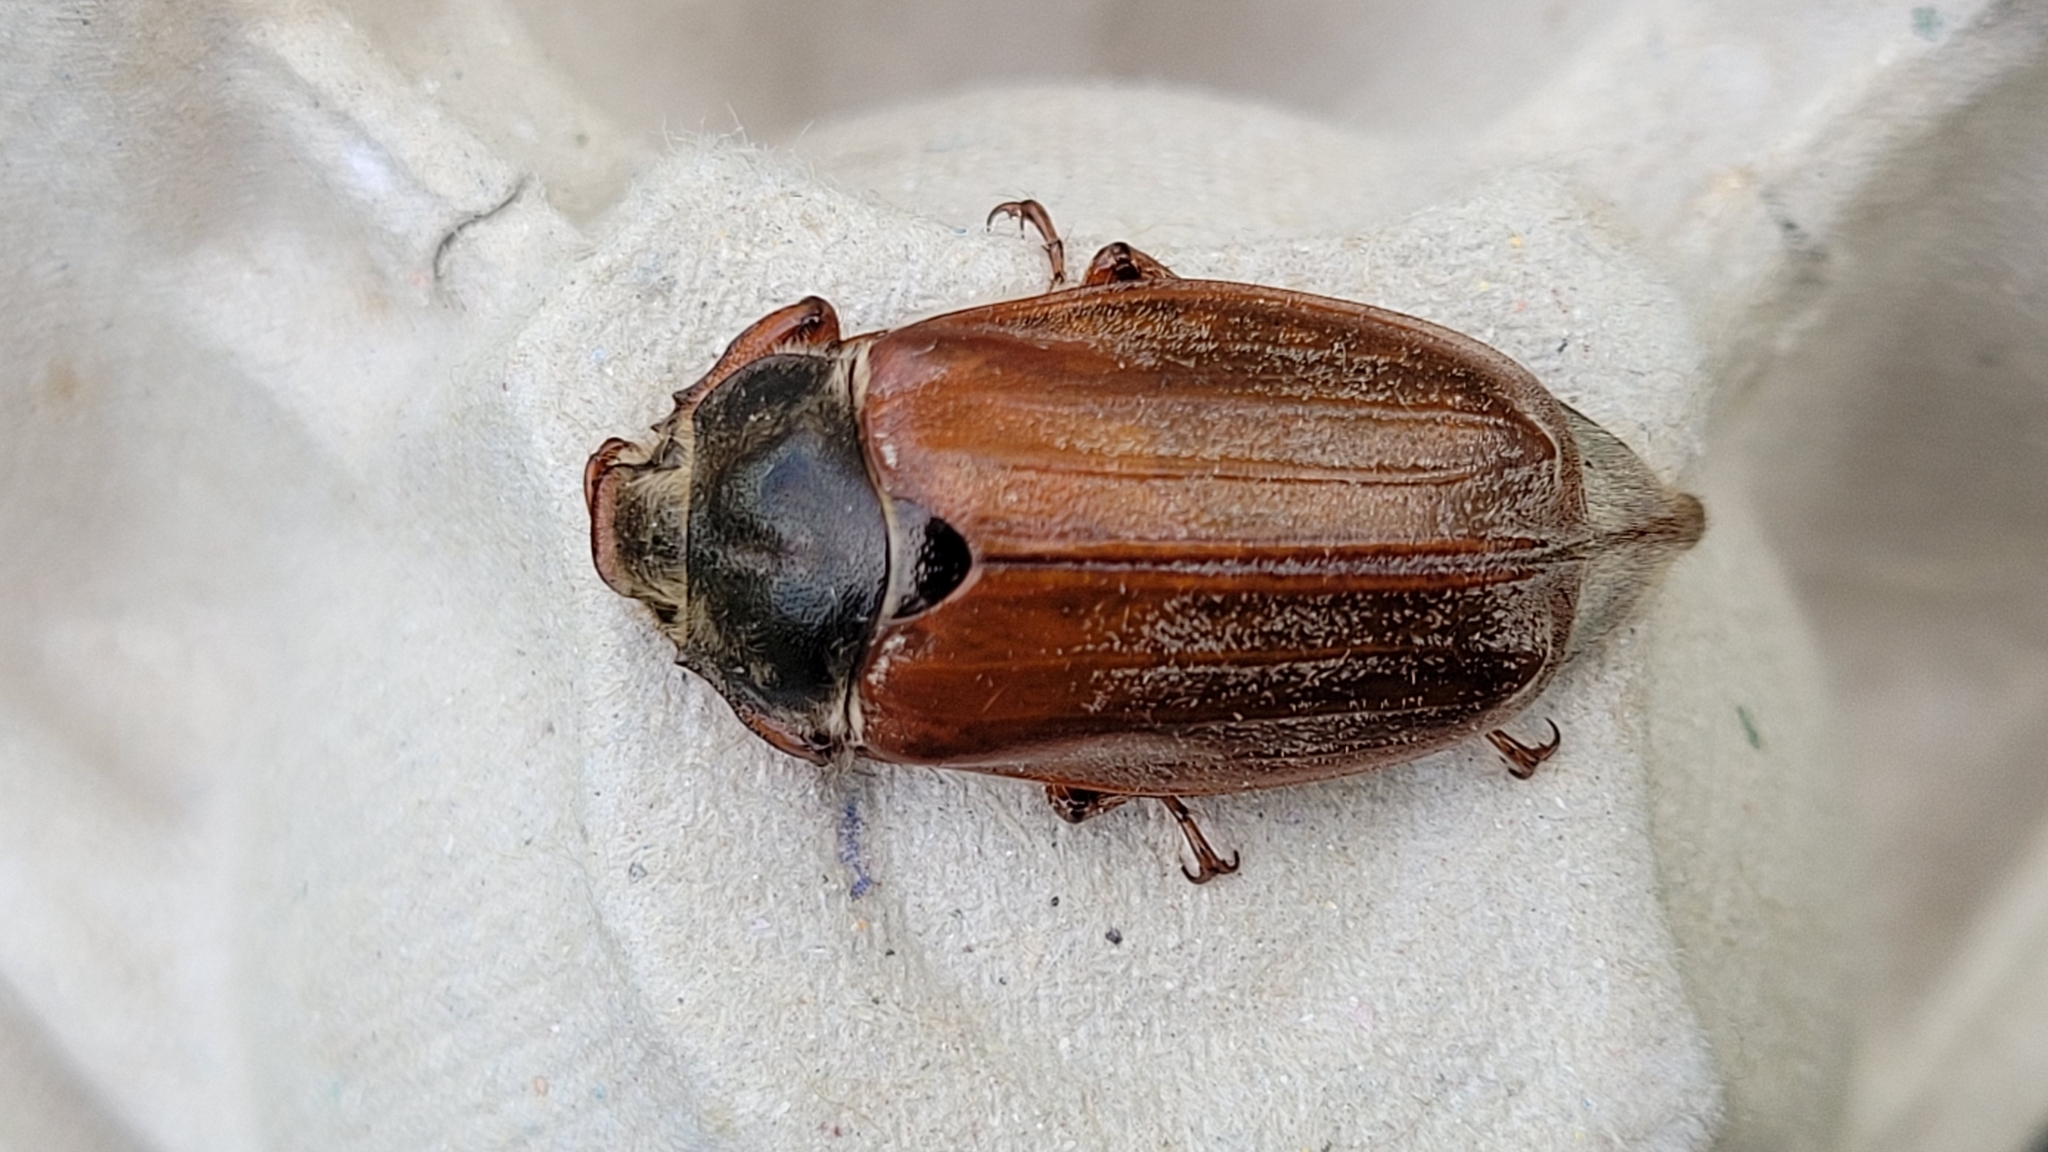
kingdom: Animalia
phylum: Arthropoda
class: Insecta
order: Coleoptera
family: Scarabaeidae
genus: Melolontha
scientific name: Melolontha melolontha
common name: Cockchafer maybeetle
